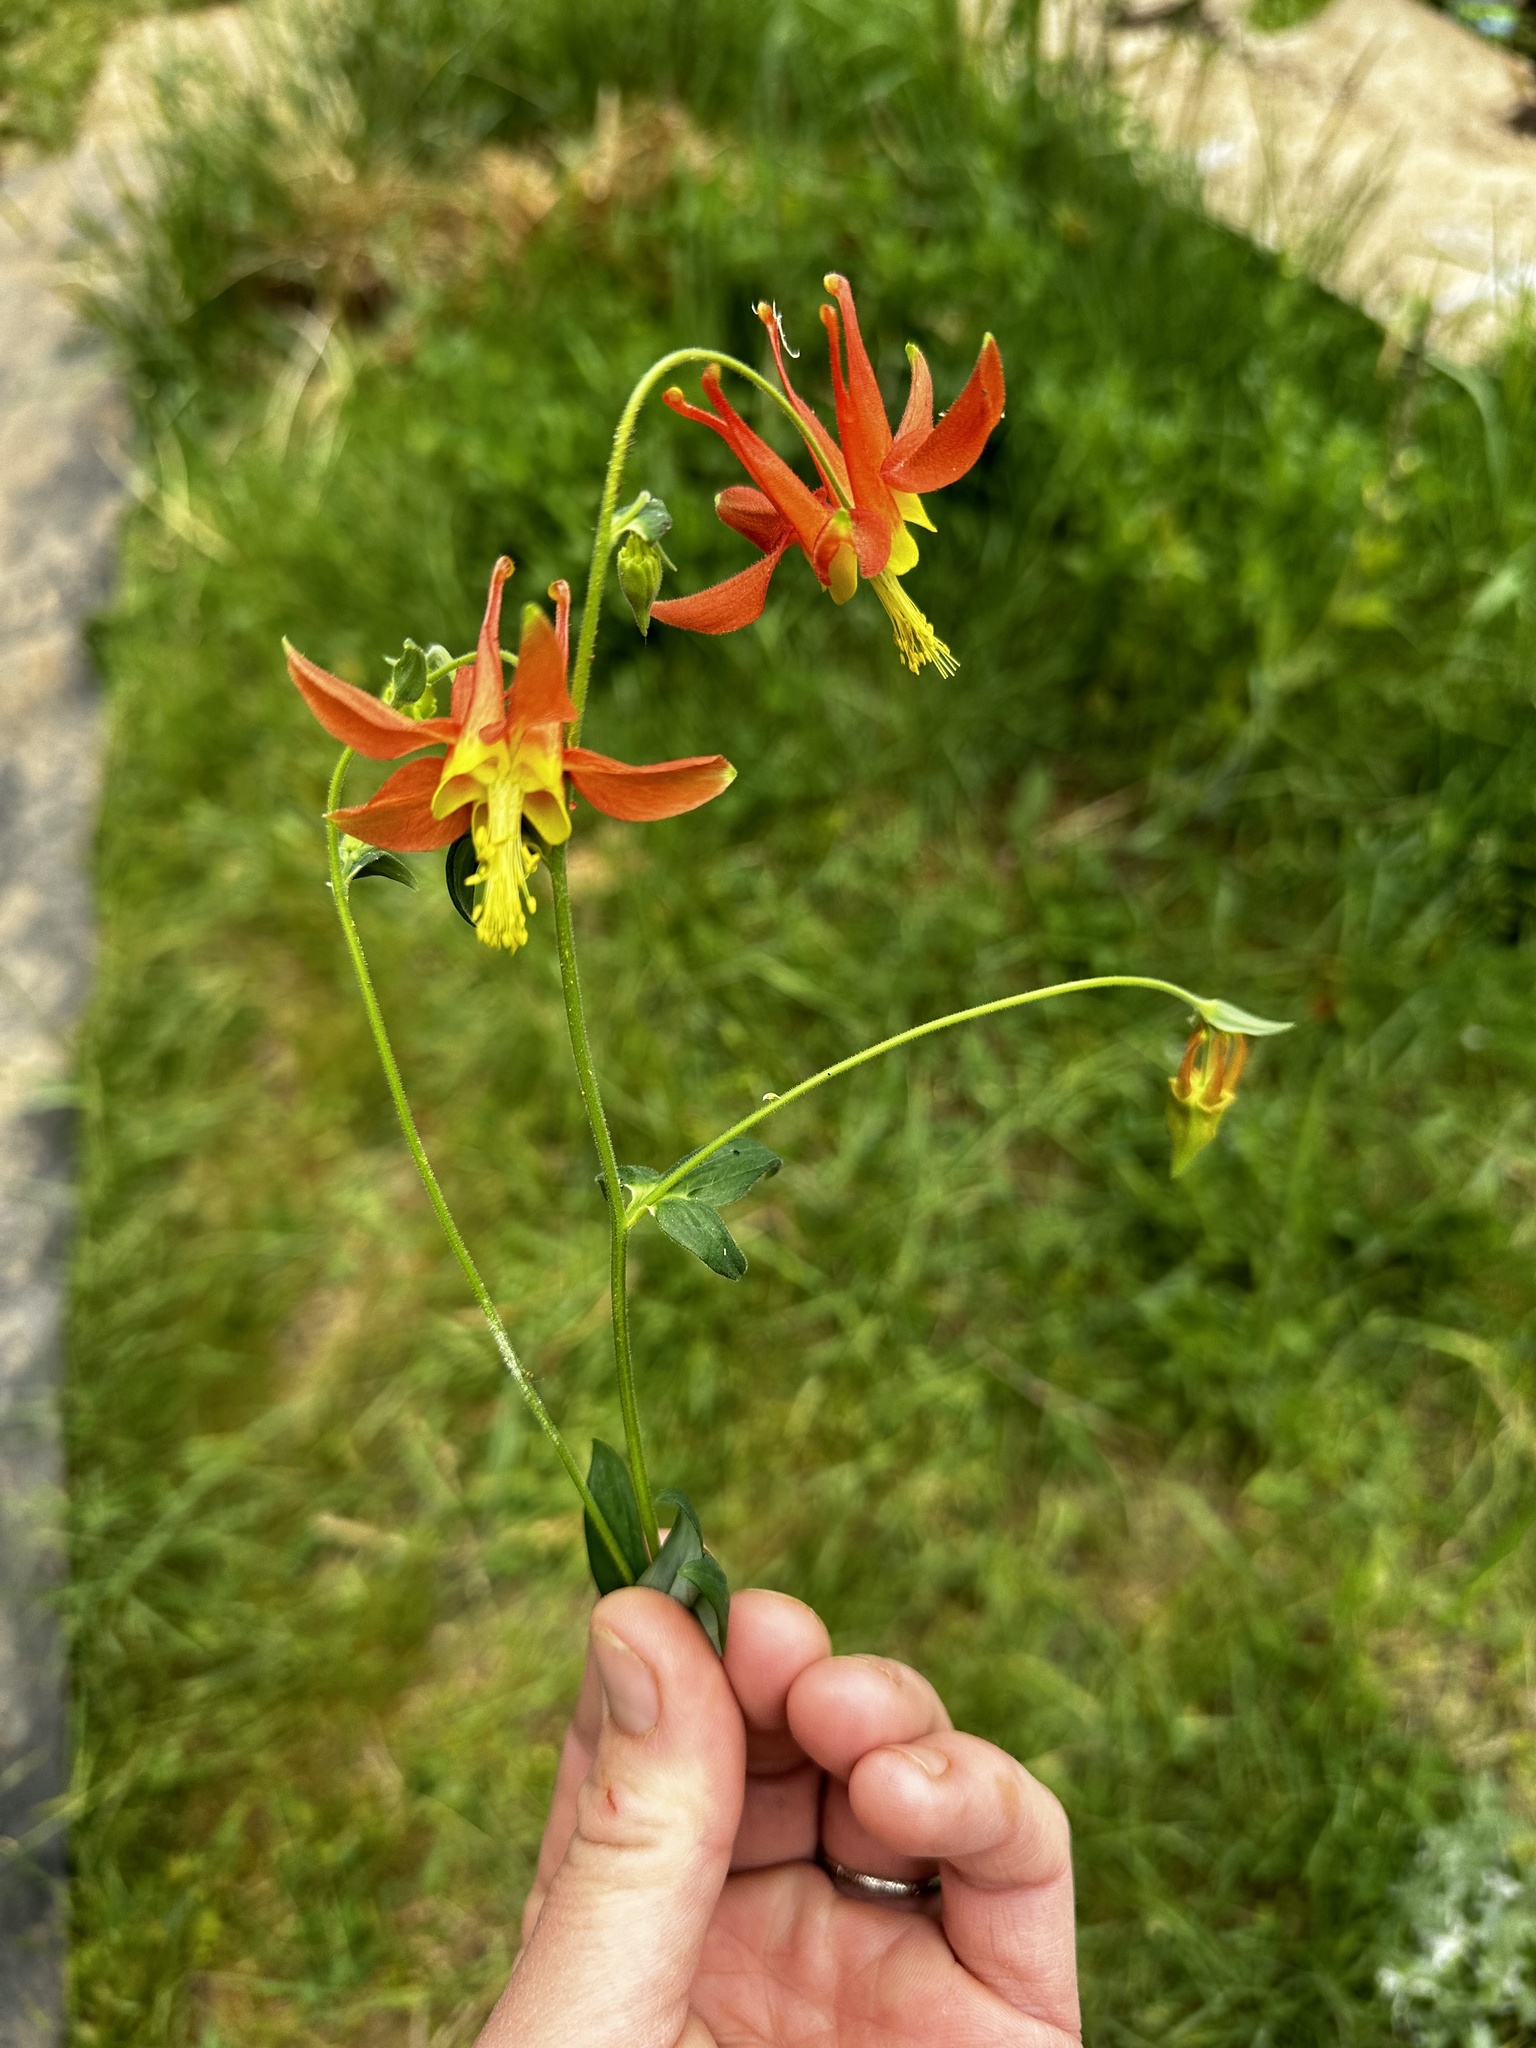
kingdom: Plantae
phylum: Tracheophyta
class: Magnoliopsida
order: Ranunculales
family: Ranunculaceae
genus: Aquilegia
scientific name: Aquilegia formosa
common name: Sitka columbine
